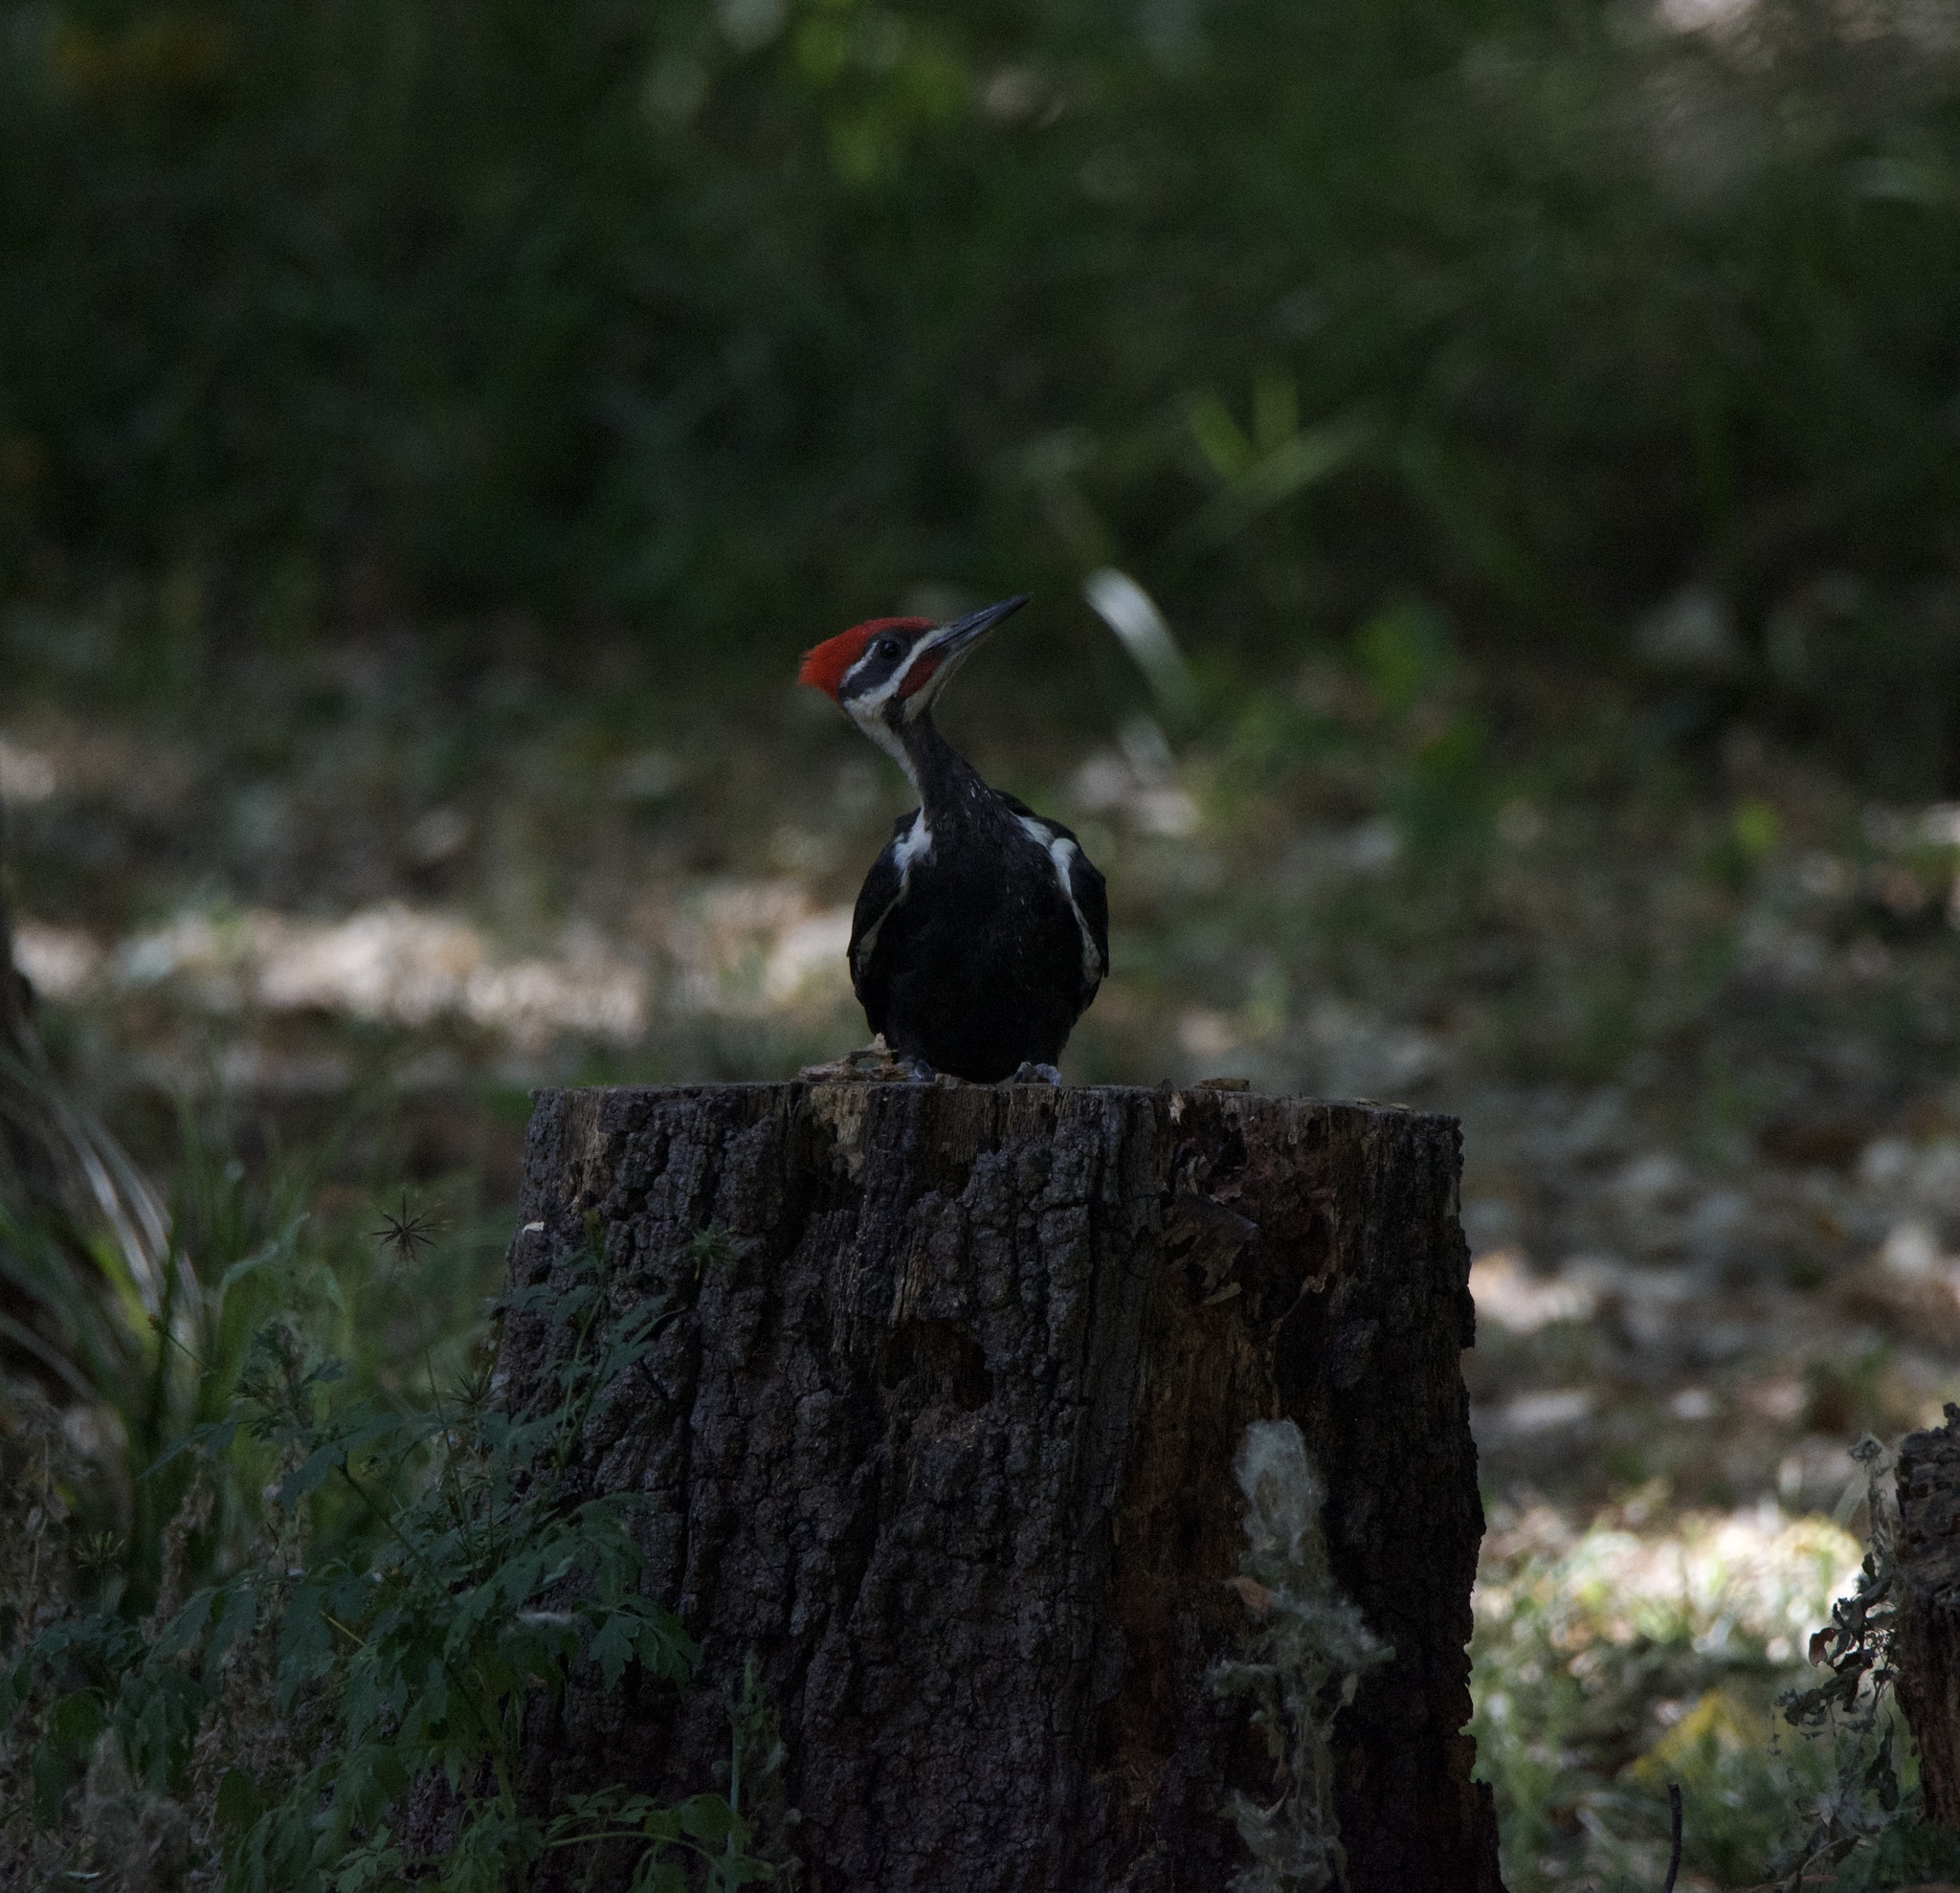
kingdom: Animalia
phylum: Chordata
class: Aves
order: Piciformes
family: Picidae
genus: Dryocopus
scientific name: Dryocopus pileatus
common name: Pileated woodpecker
